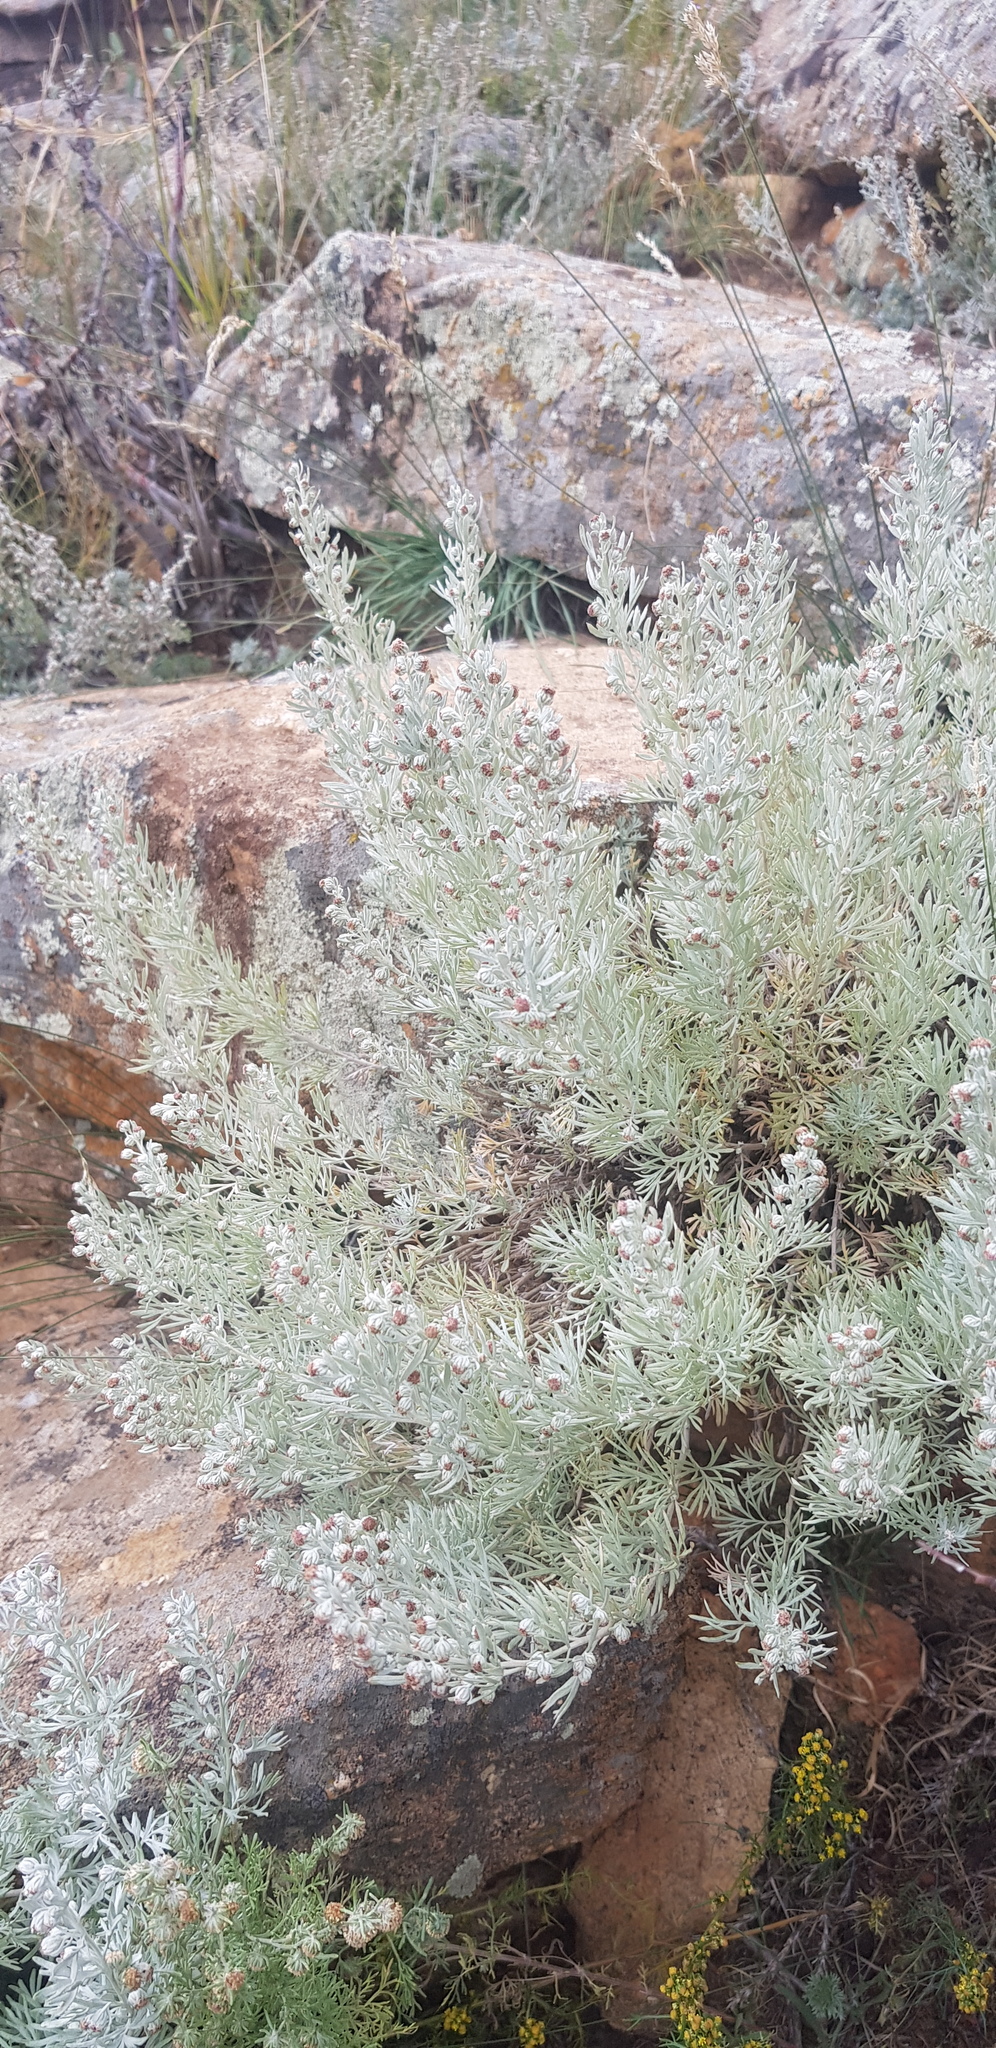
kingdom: Plantae
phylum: Tracheophyta
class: Magnoliopsida
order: Asterales
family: Asteraceae
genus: Artemisia
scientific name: Artemisia rutifolia
